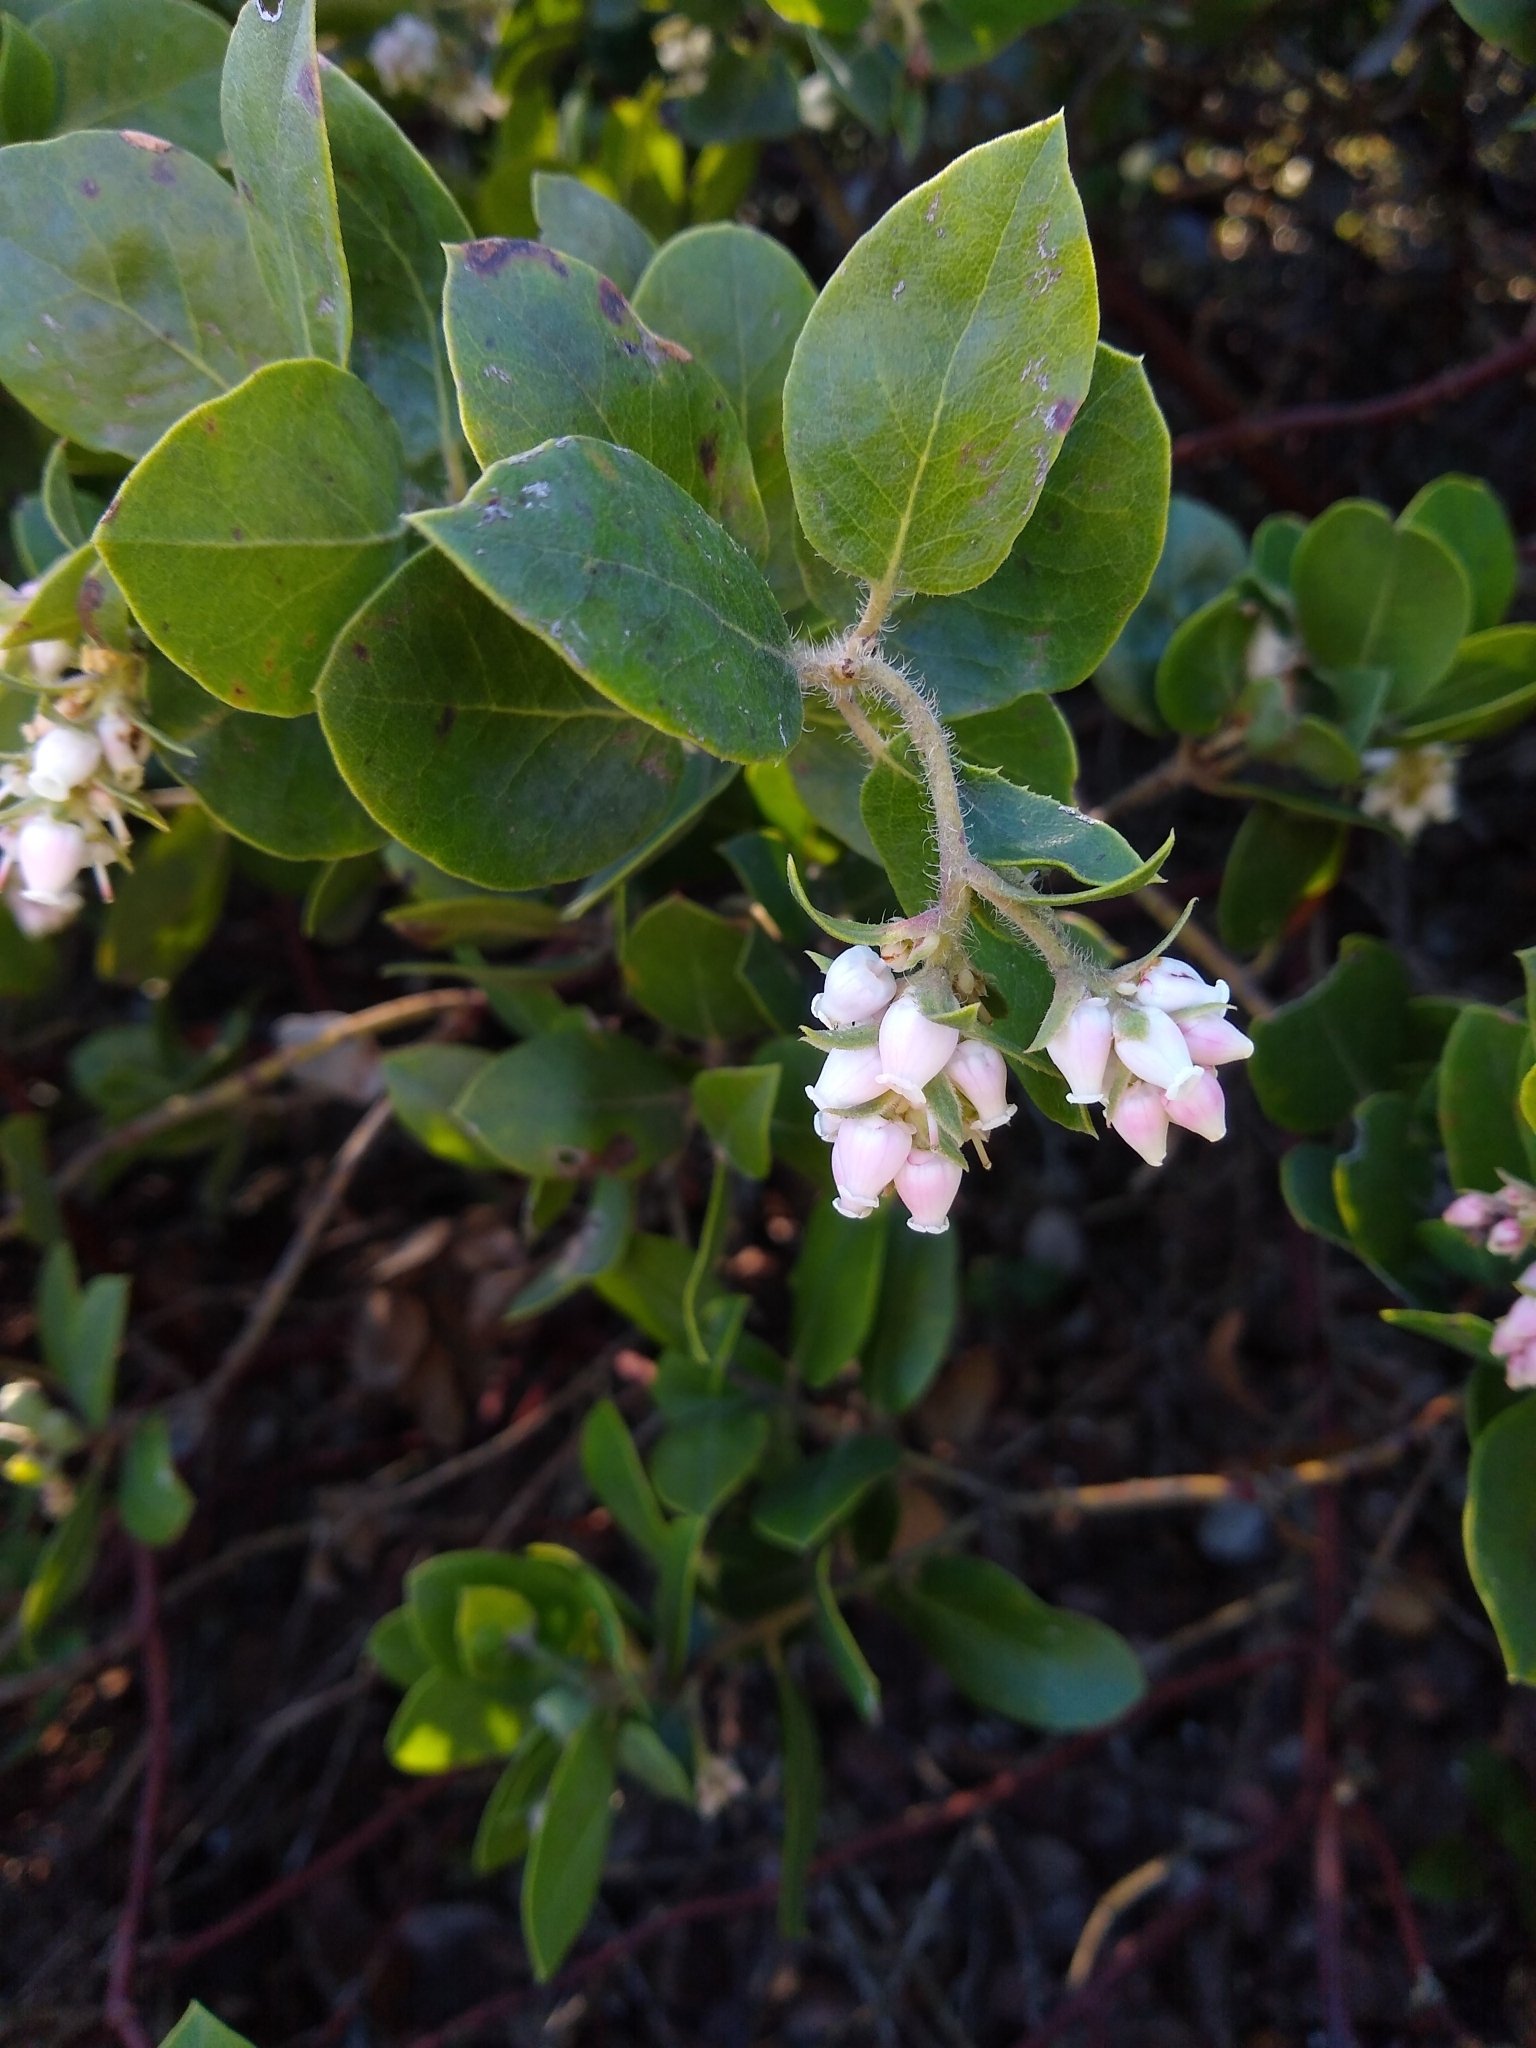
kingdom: Plantae
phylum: Tracheophyta
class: Magnoliopsida
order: Ericales
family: Ericaceae
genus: Arctostaphylos
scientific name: Arctostaphylos crustacea
